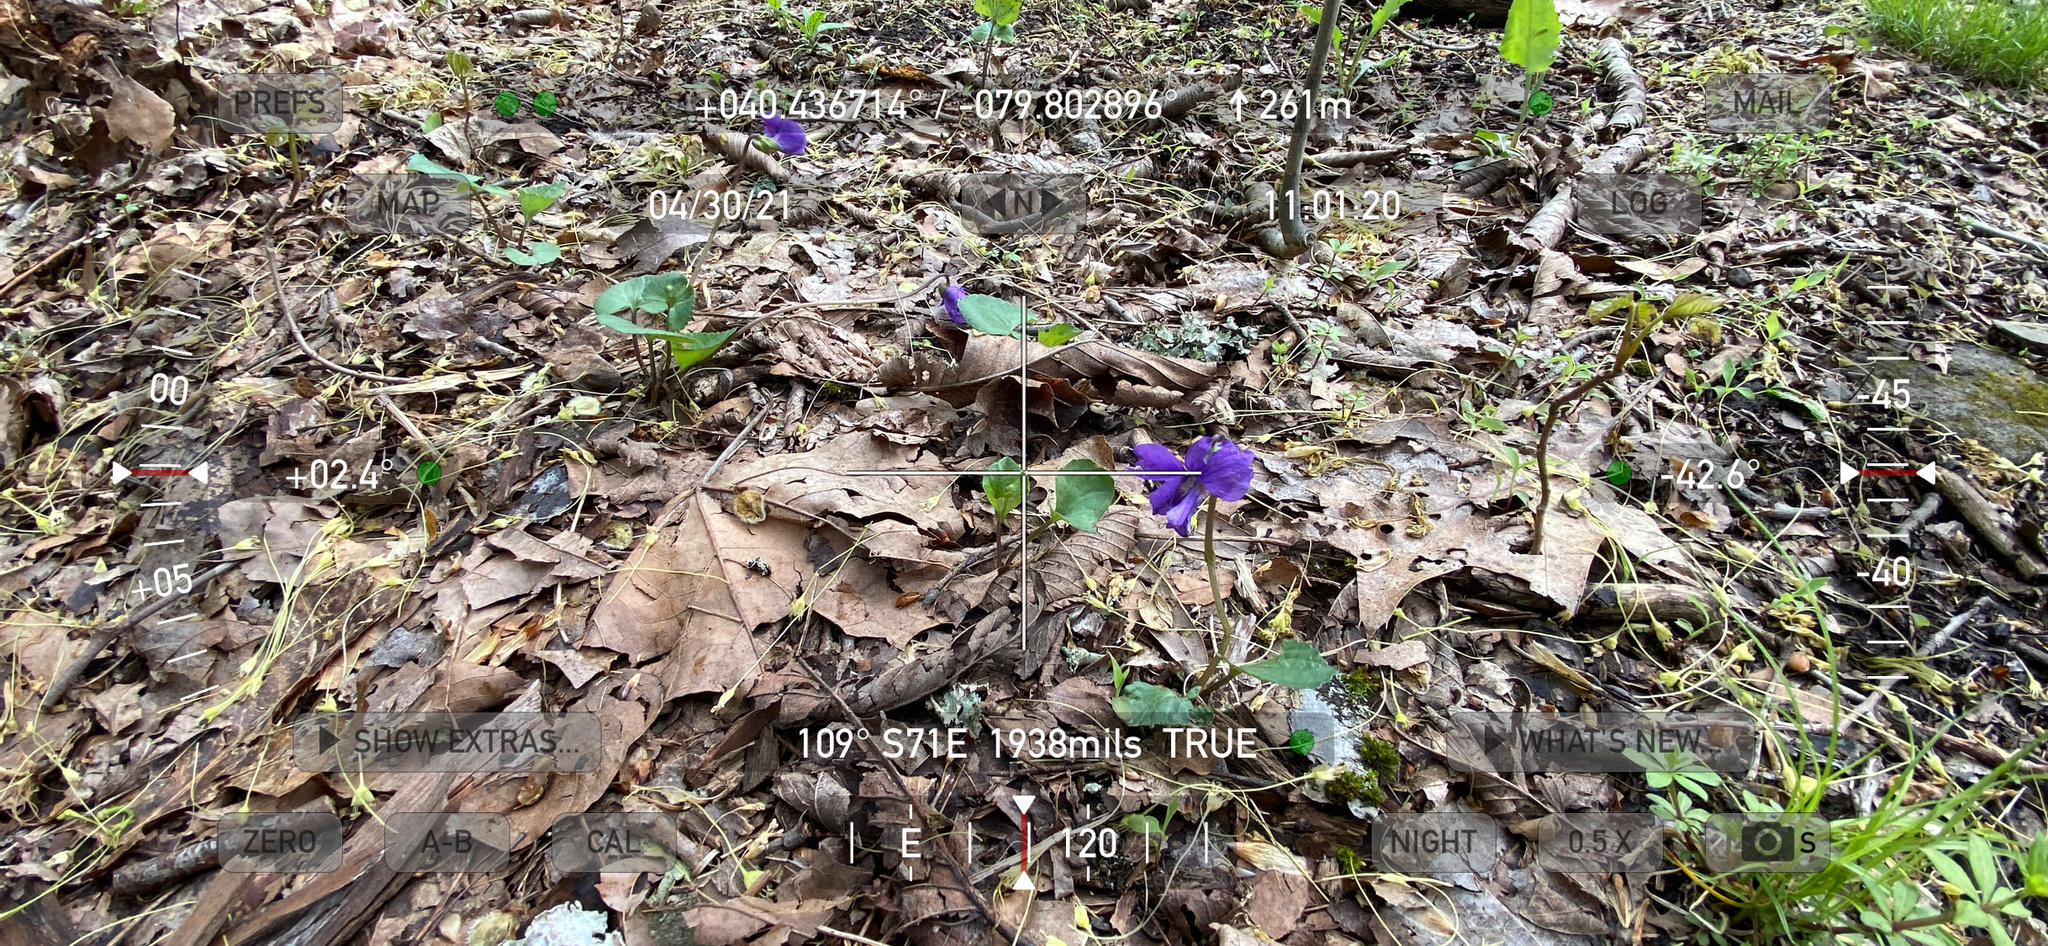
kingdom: Plantae
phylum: Tracheophyta
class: Magnoliopsida
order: Malpighiales
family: Violaceae
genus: Viola
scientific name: Viola sororia
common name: Dooryard violet
